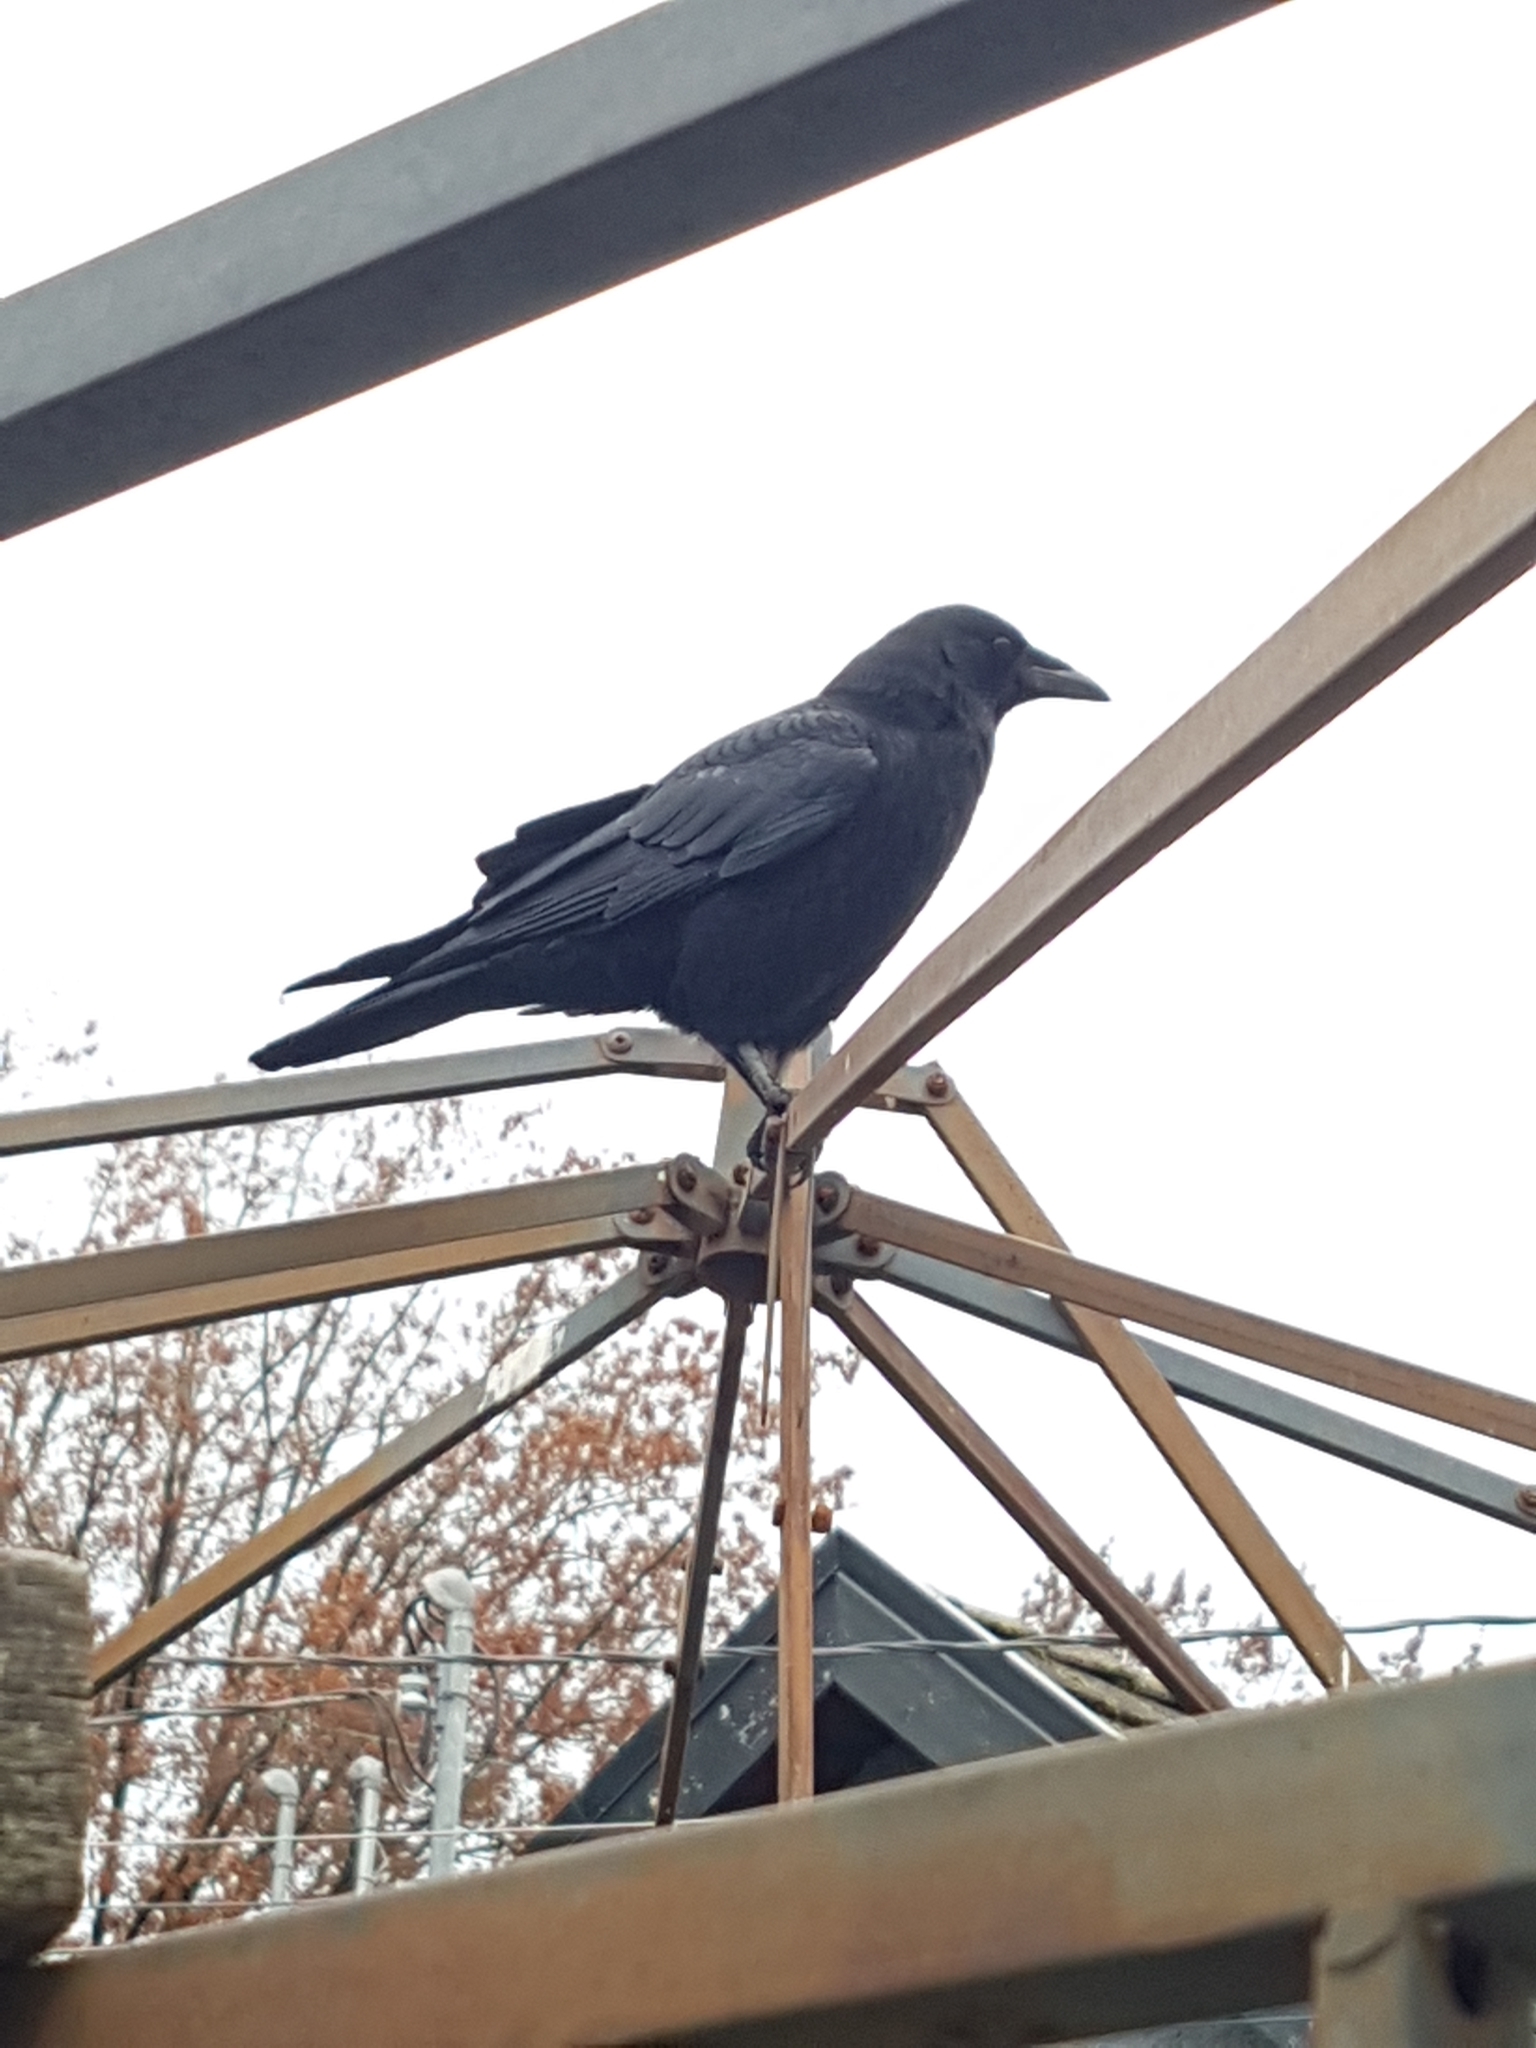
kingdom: Animalia
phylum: Chordata
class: Aves
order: Passeriformes
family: Corvidae
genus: Corvus
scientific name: Corvus brachyrhynchos
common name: American crow
